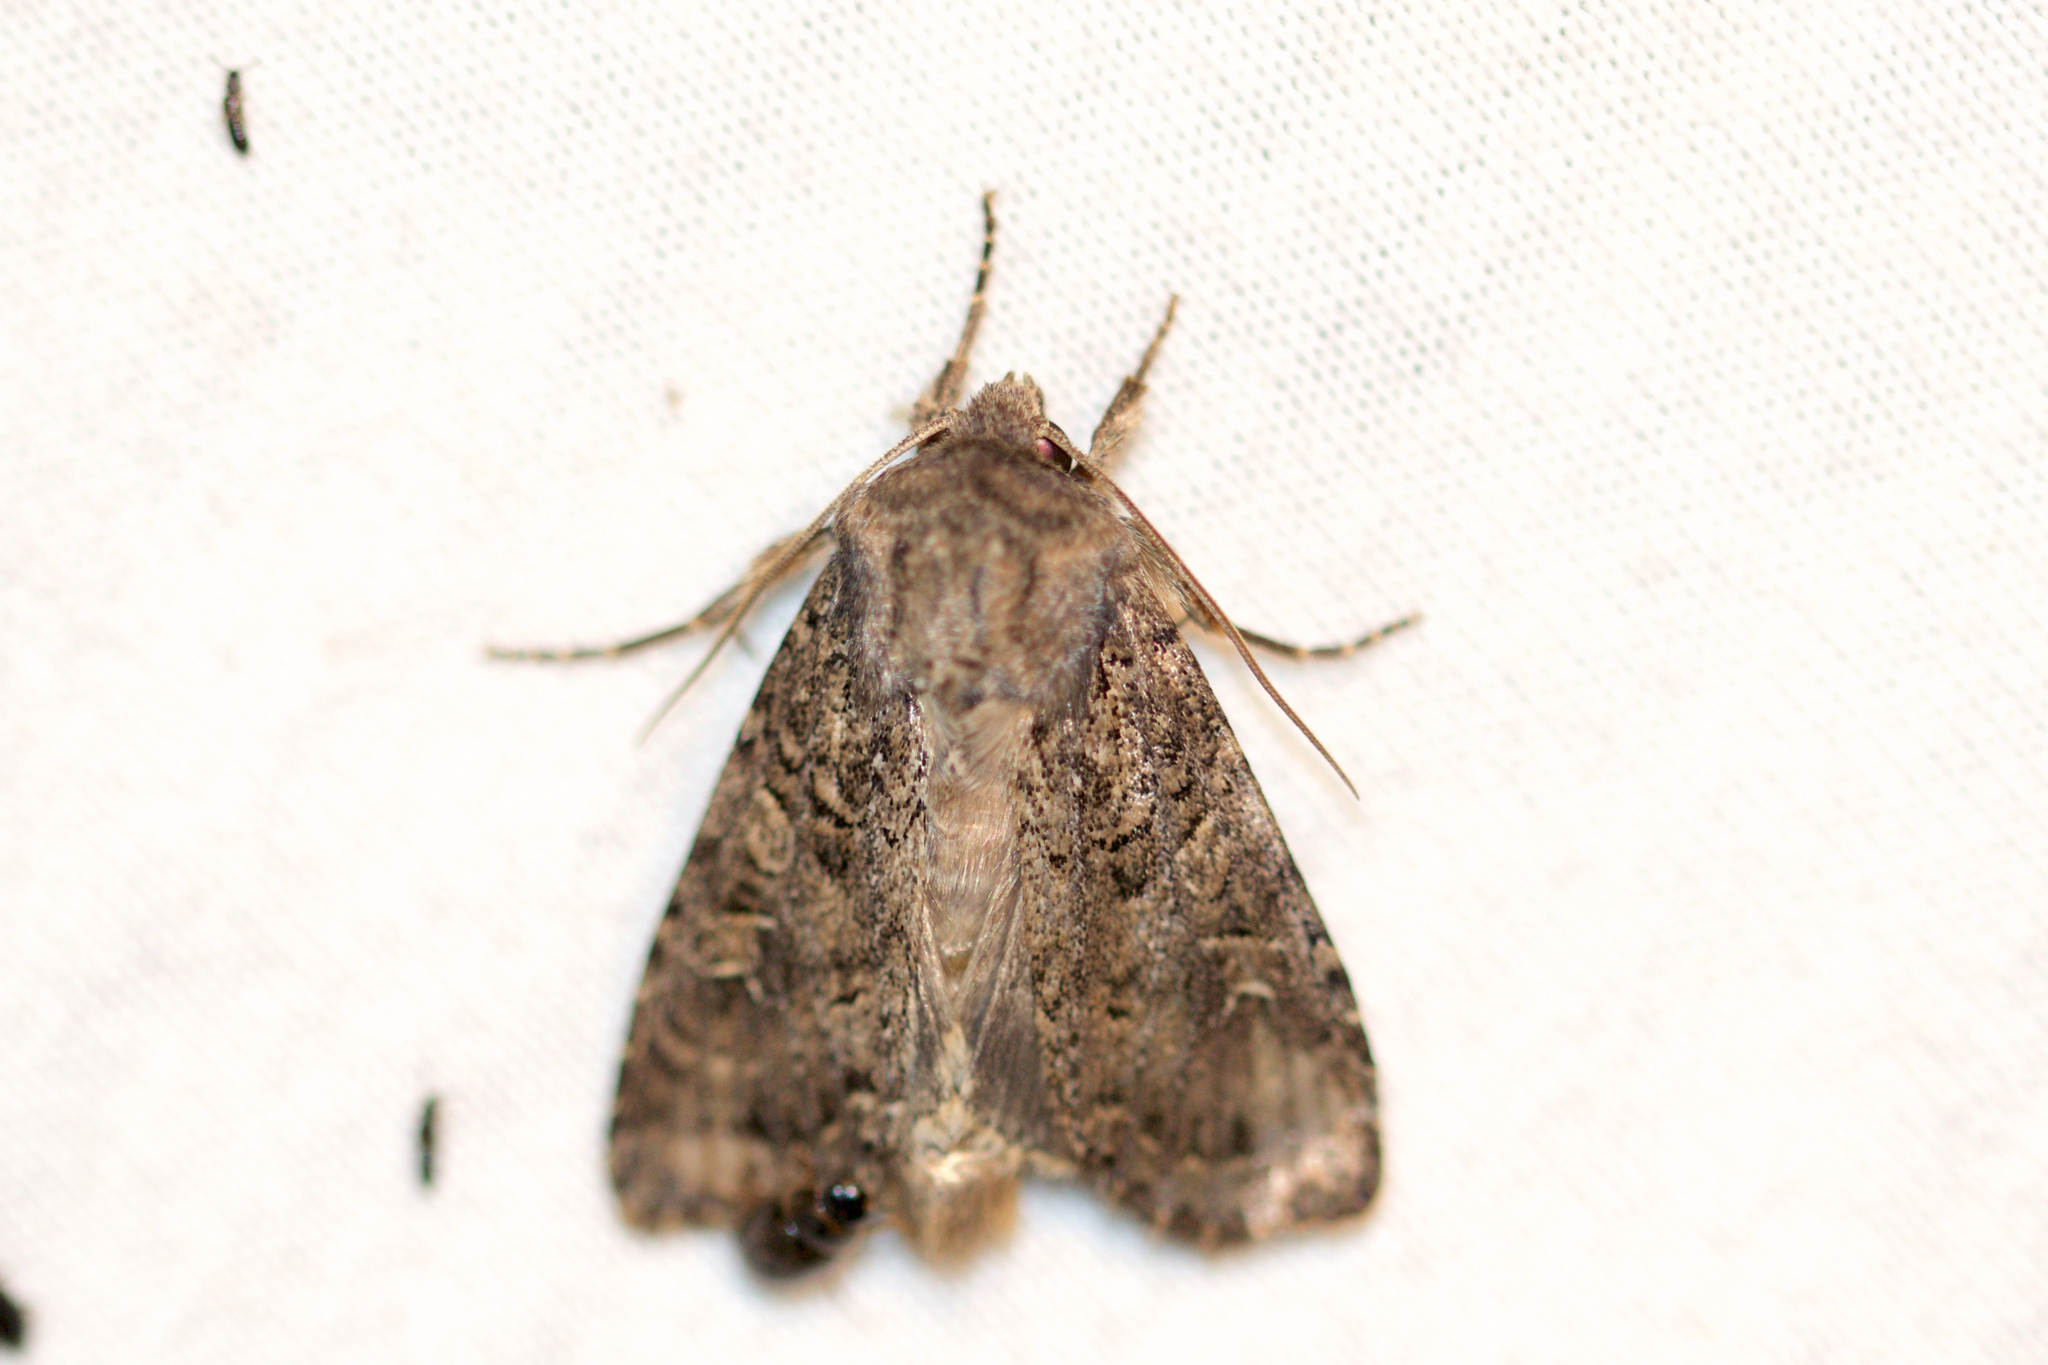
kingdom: Animalia
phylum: Arthropoda
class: Insecta
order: Lepidoptera
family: Noctuidae
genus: Apamea
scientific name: Apamea devastator
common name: Glassy cutworm
